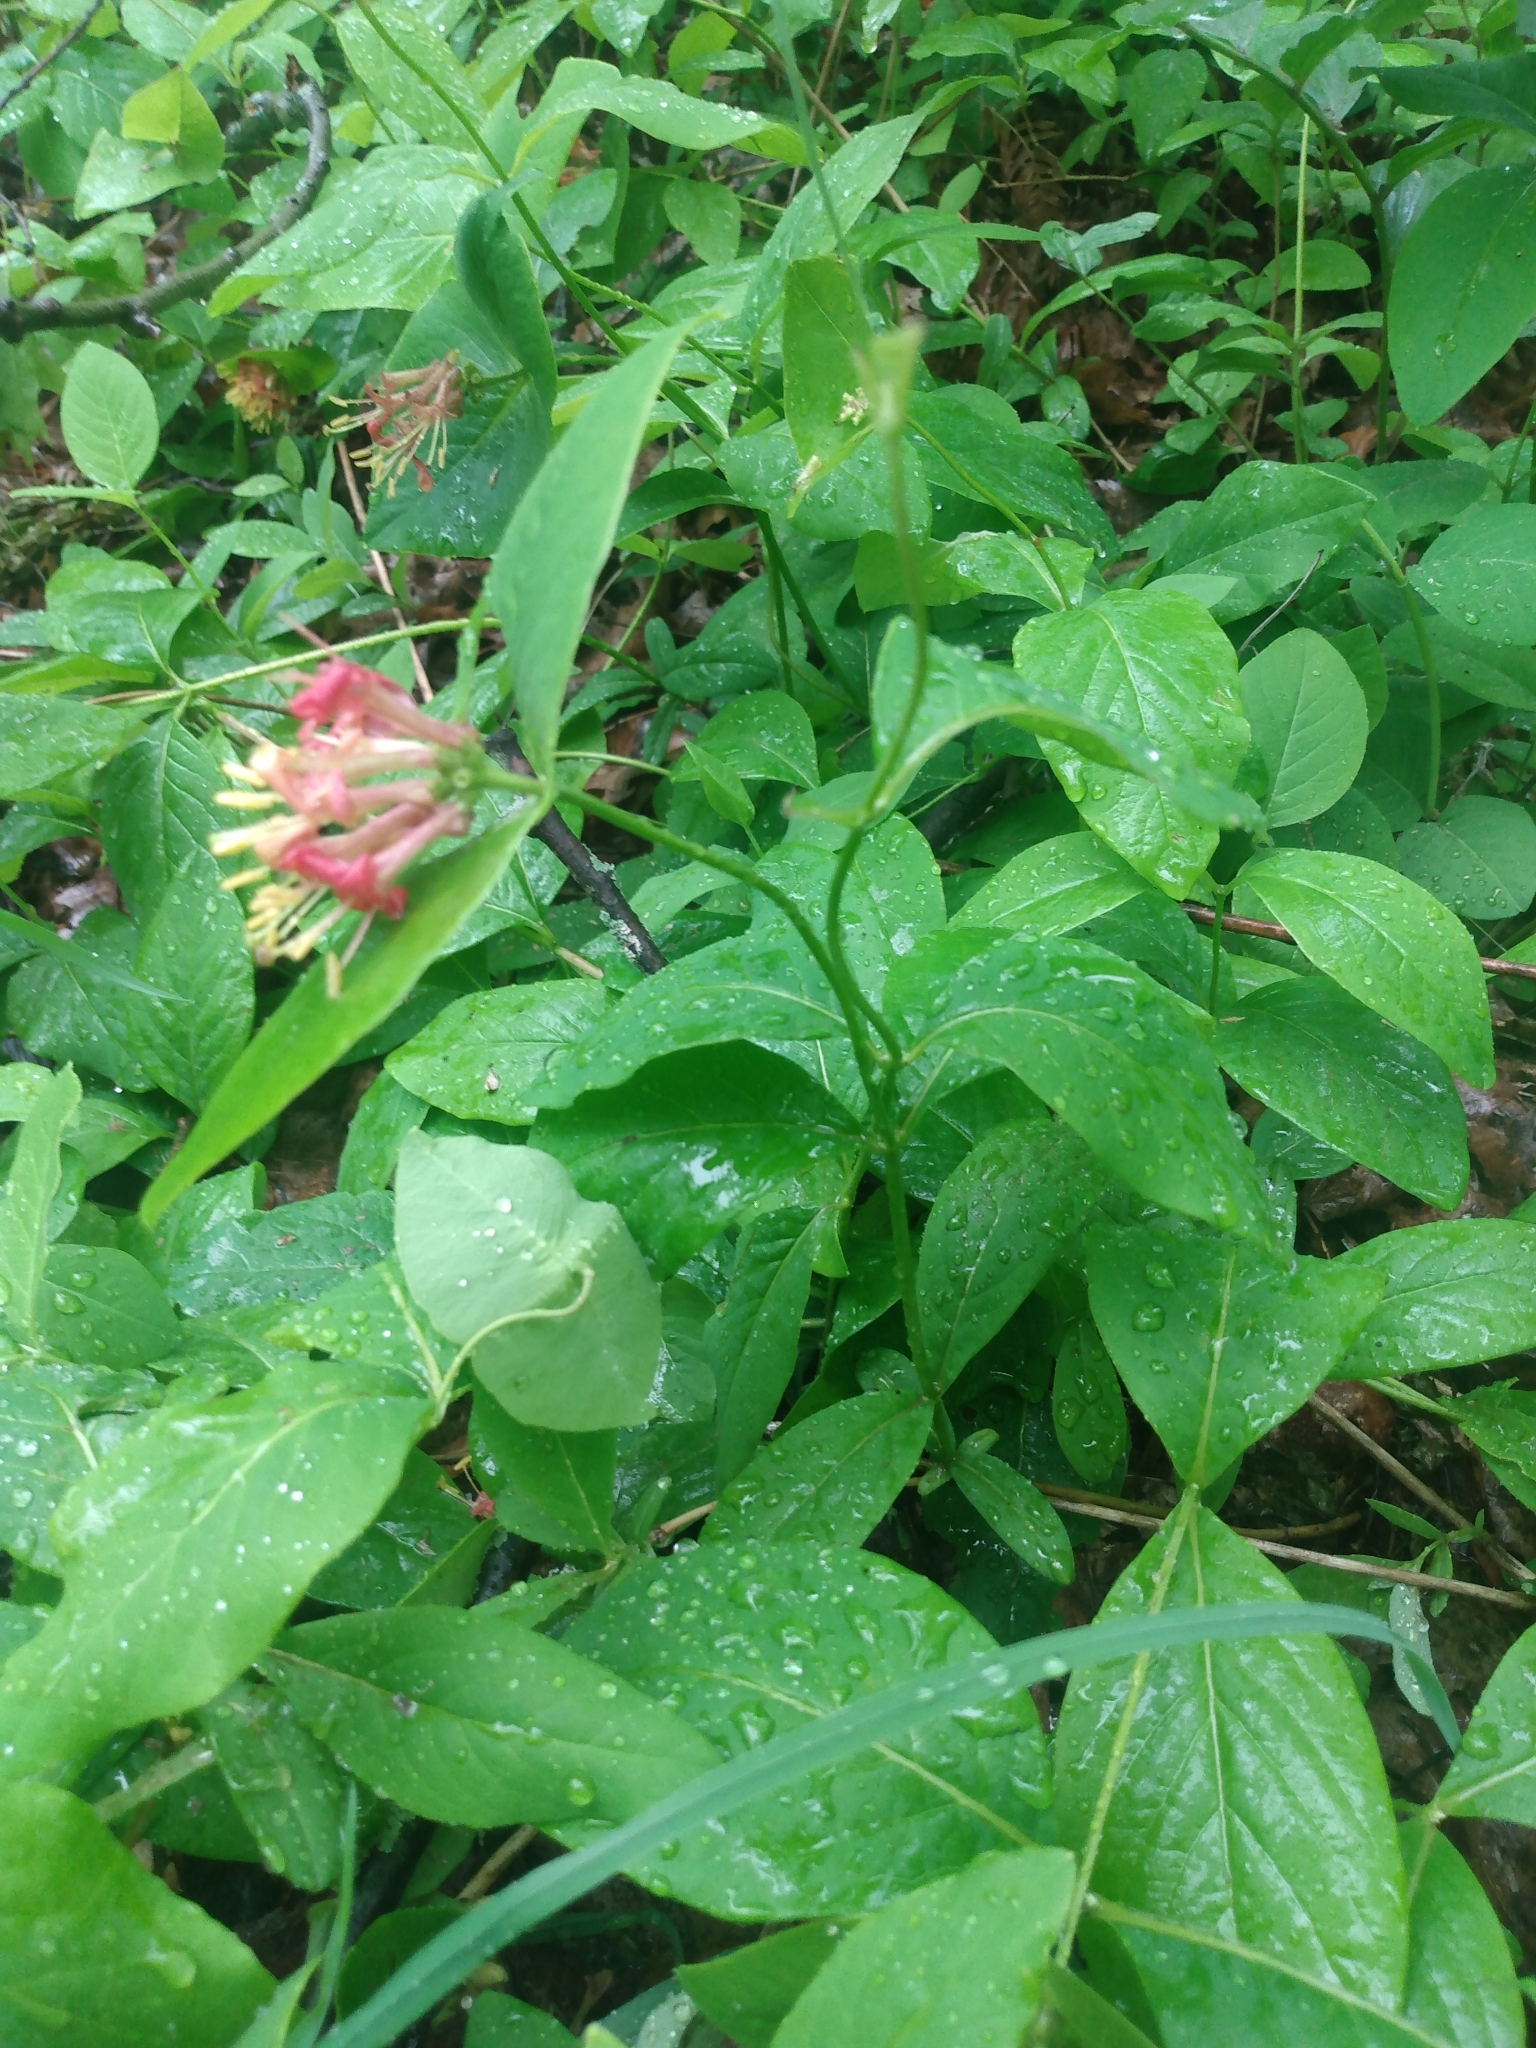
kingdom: Plantae
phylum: Tracheophyta
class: Magnoliopsida
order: Dipsacales
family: Caprifoliaceae
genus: Lonicera
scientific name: Lonicera dioica
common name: Limber honeysuckle
